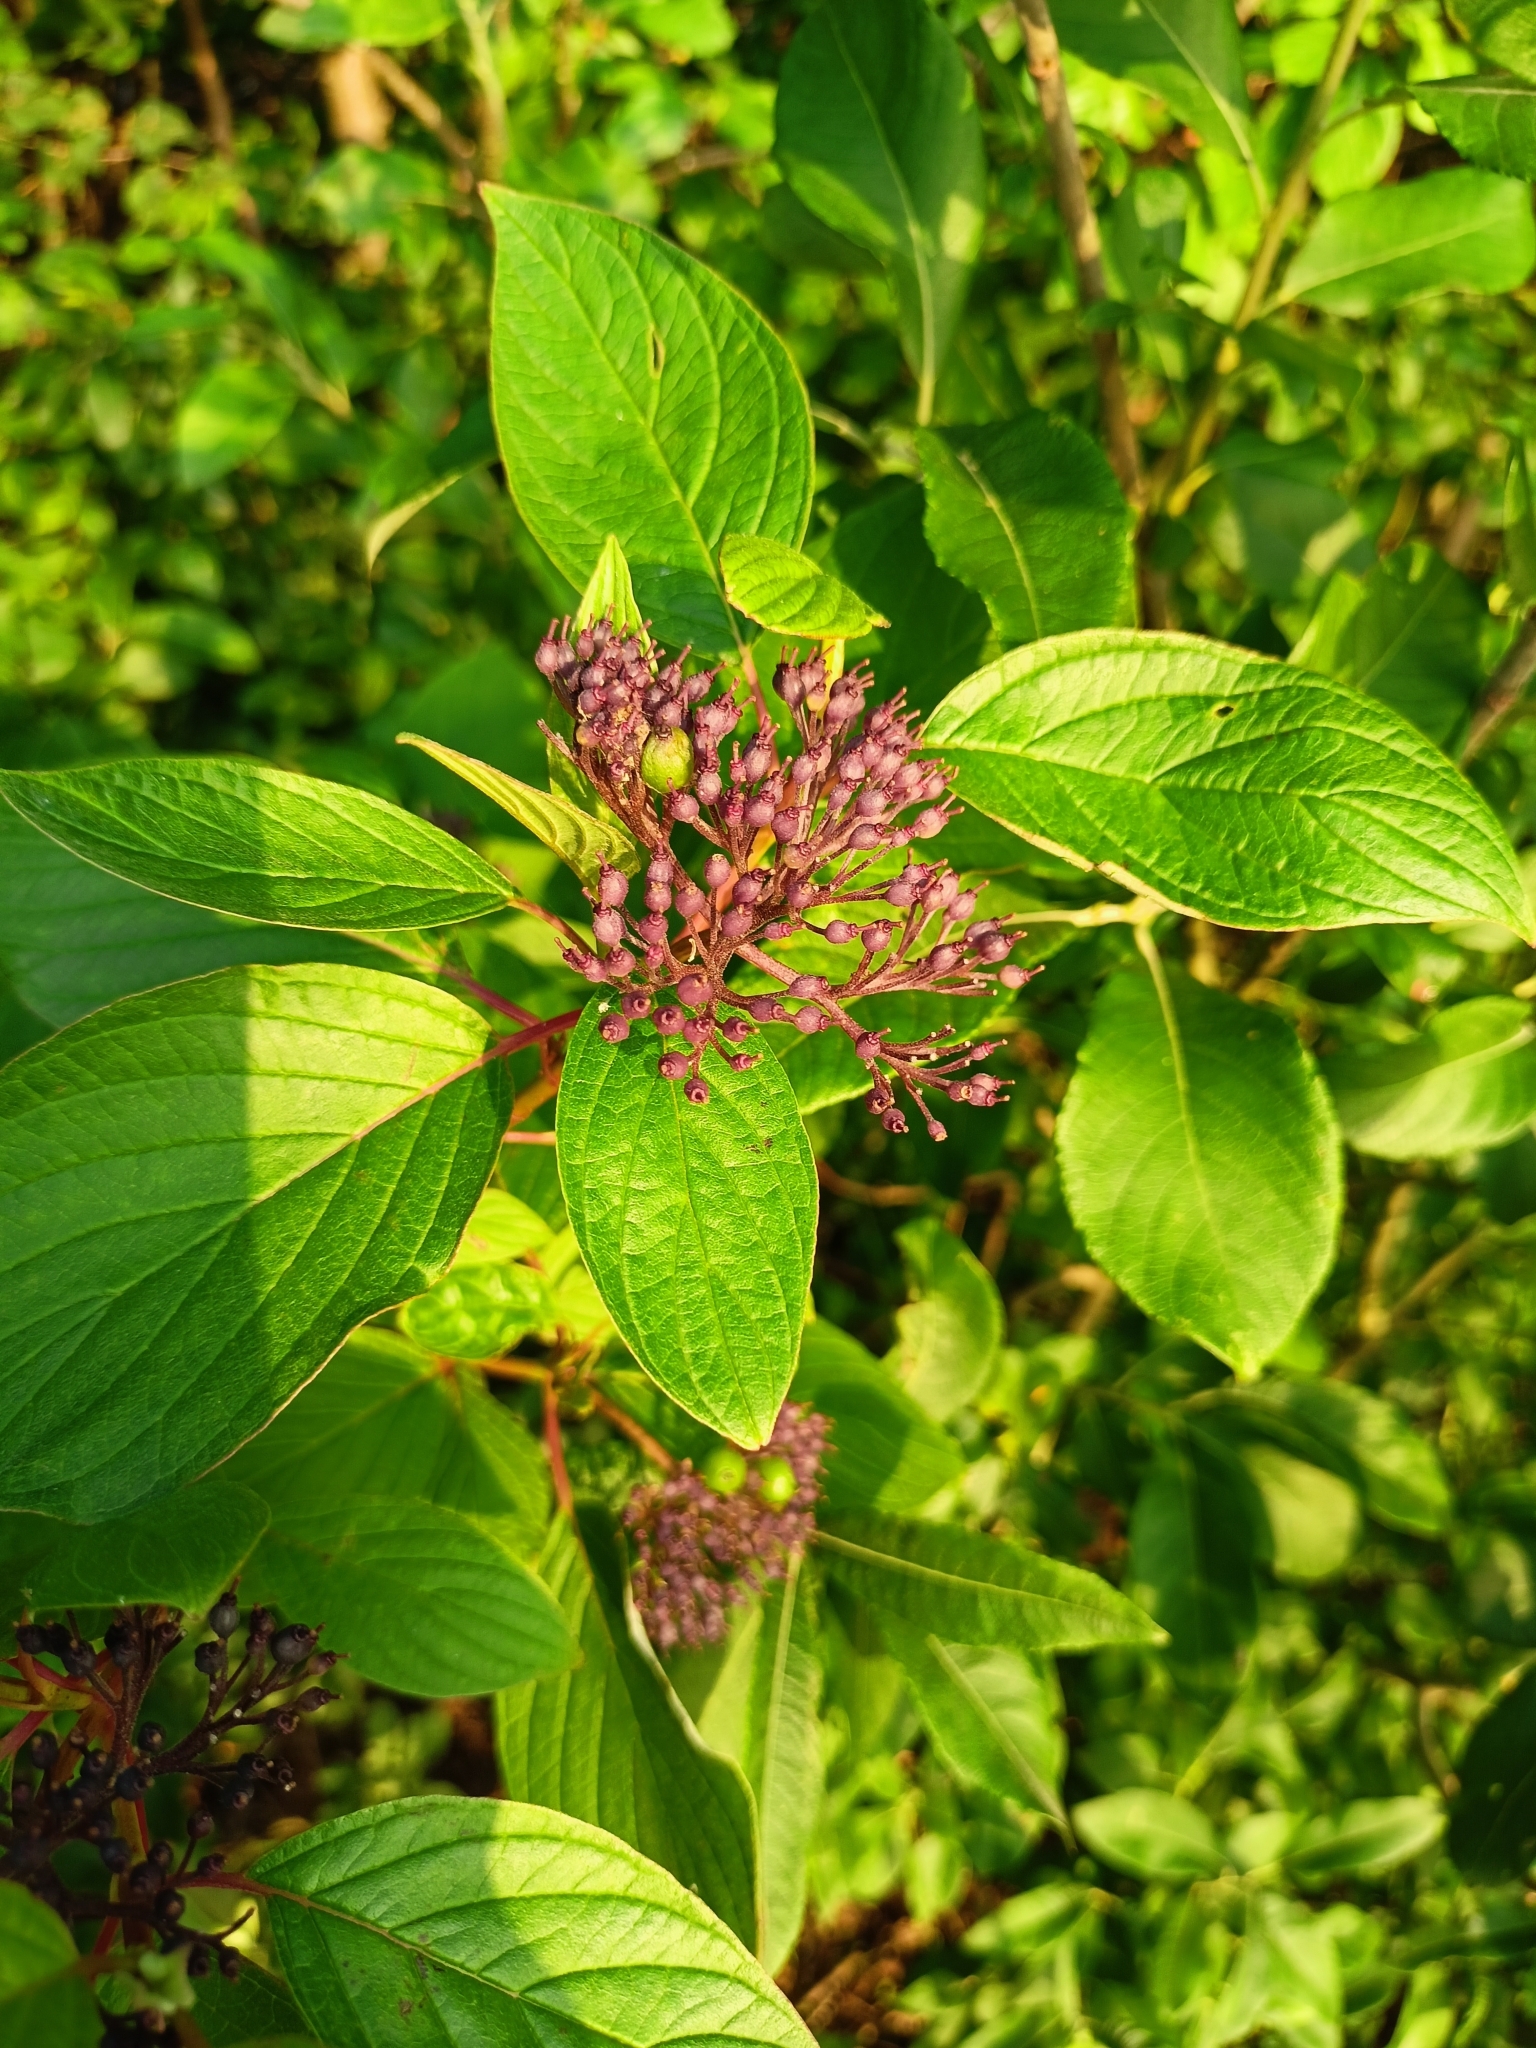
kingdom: Plantae
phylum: Tracheophyta
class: Magnoliopsida
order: Cornales
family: Cornaceae
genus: Cornus
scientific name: Cornus alba
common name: White dogwood
